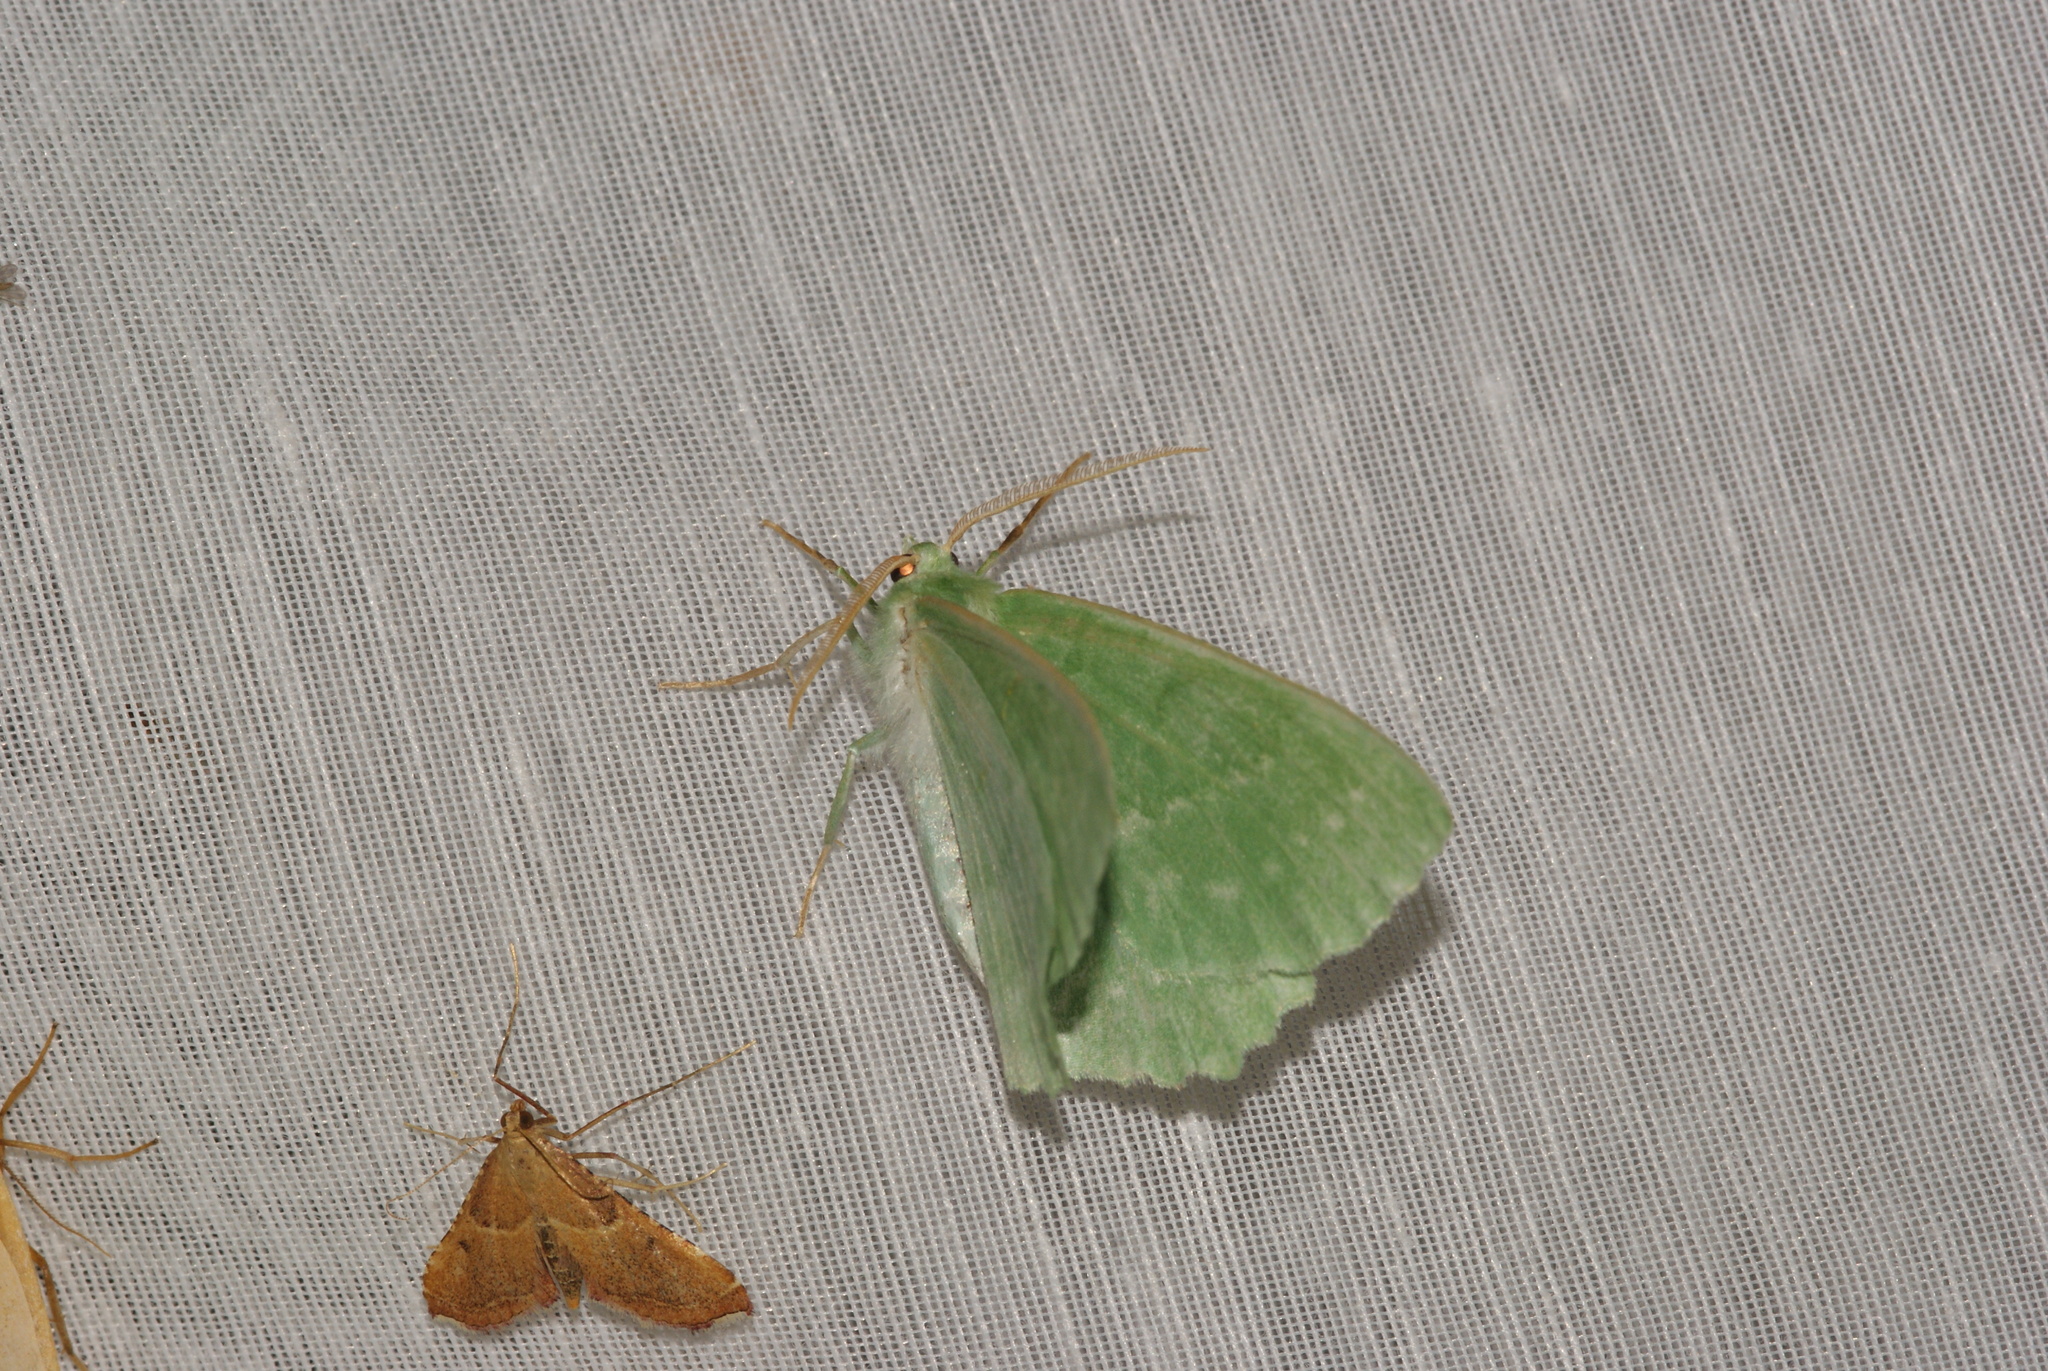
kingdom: Animalia
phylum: Arthropoda
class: Insecta
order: Lepidoptera
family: Geometridae
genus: Geometra
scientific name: Geometra papilionaria
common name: Large emerald
